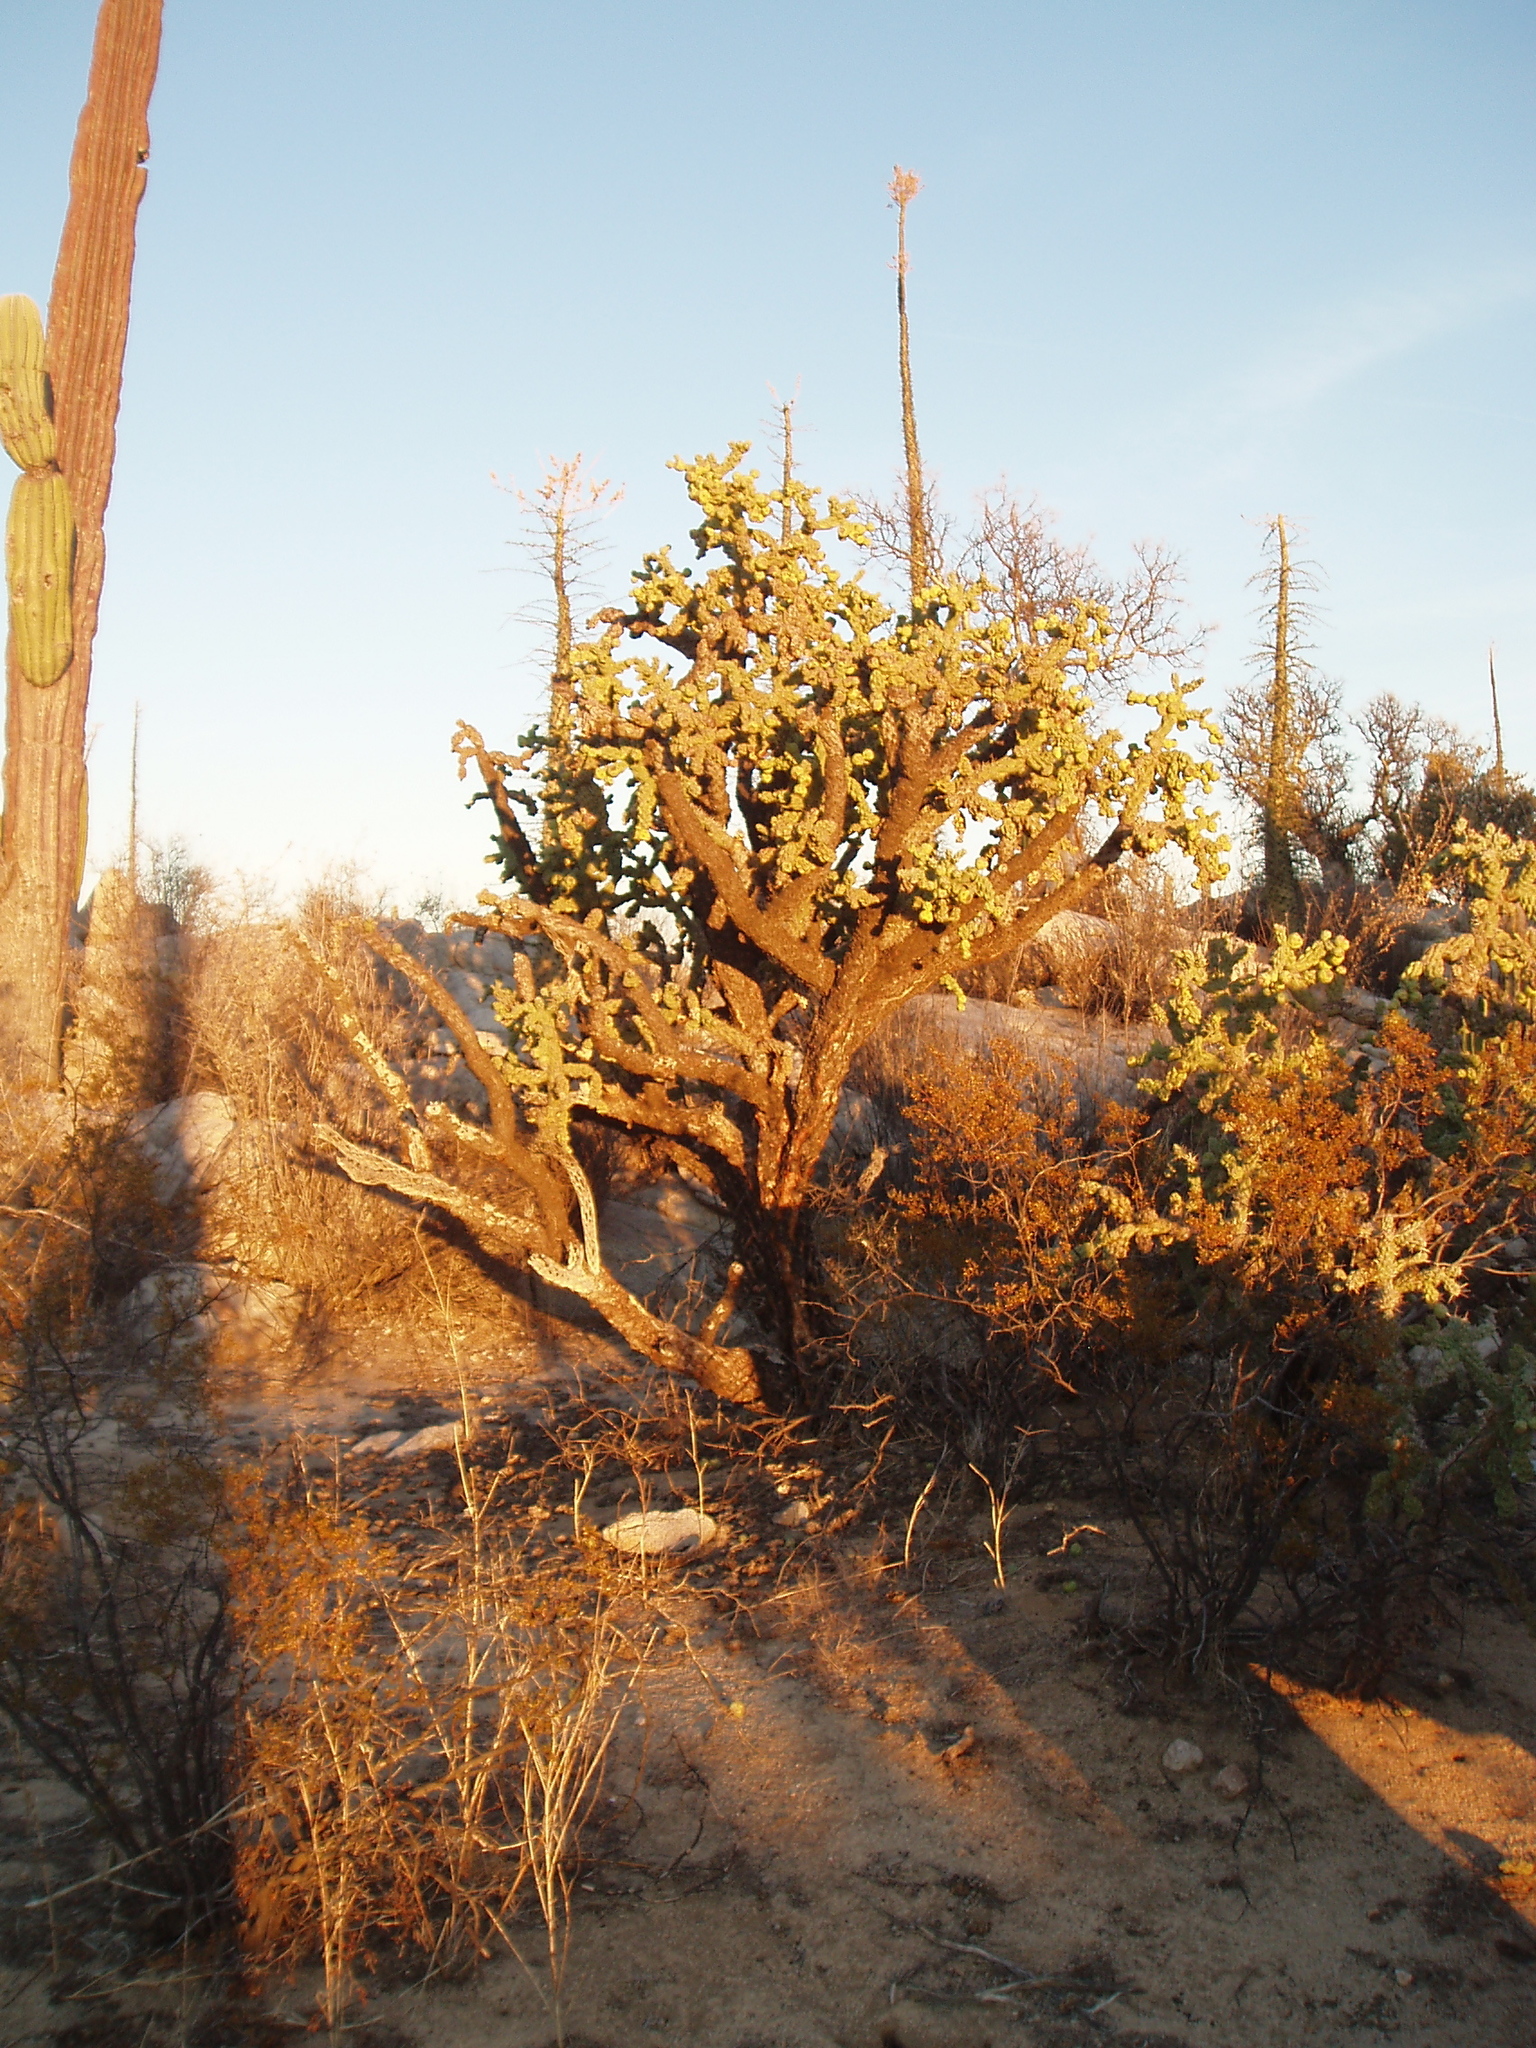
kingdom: Plantae
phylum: Tracheophyta
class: Magnoliopsida
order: Caryophyllales
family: Cactaceae
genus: Cylindropuntia
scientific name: Cylindropuntia cholla
